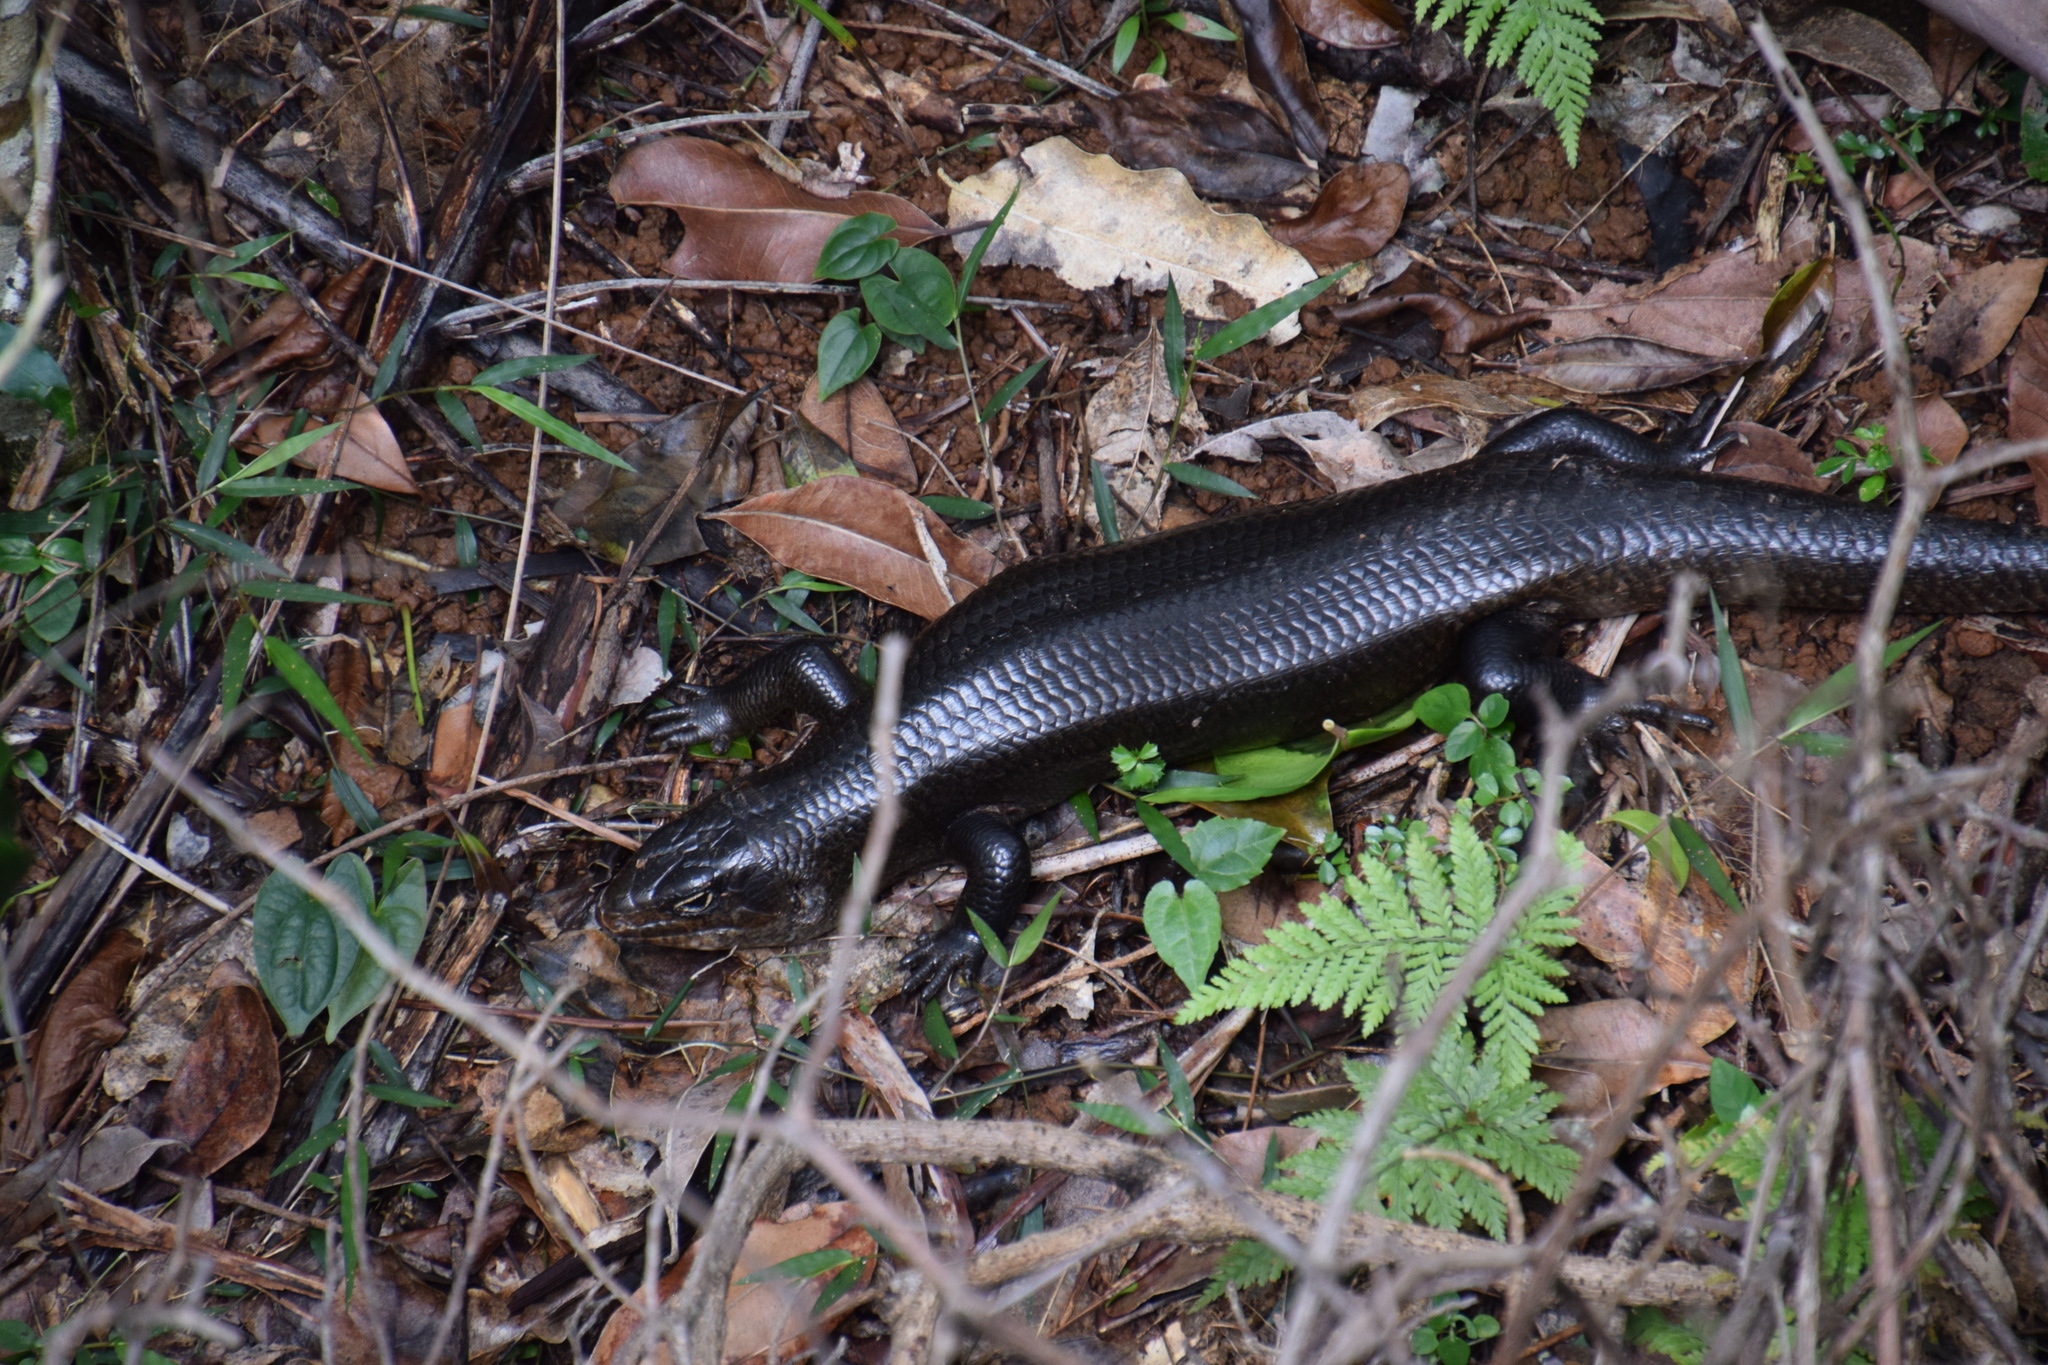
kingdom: Animalia
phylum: Chordata
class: Squamata
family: Scincidae
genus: Bellatorias
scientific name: Bellatorias major
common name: Land mullet
